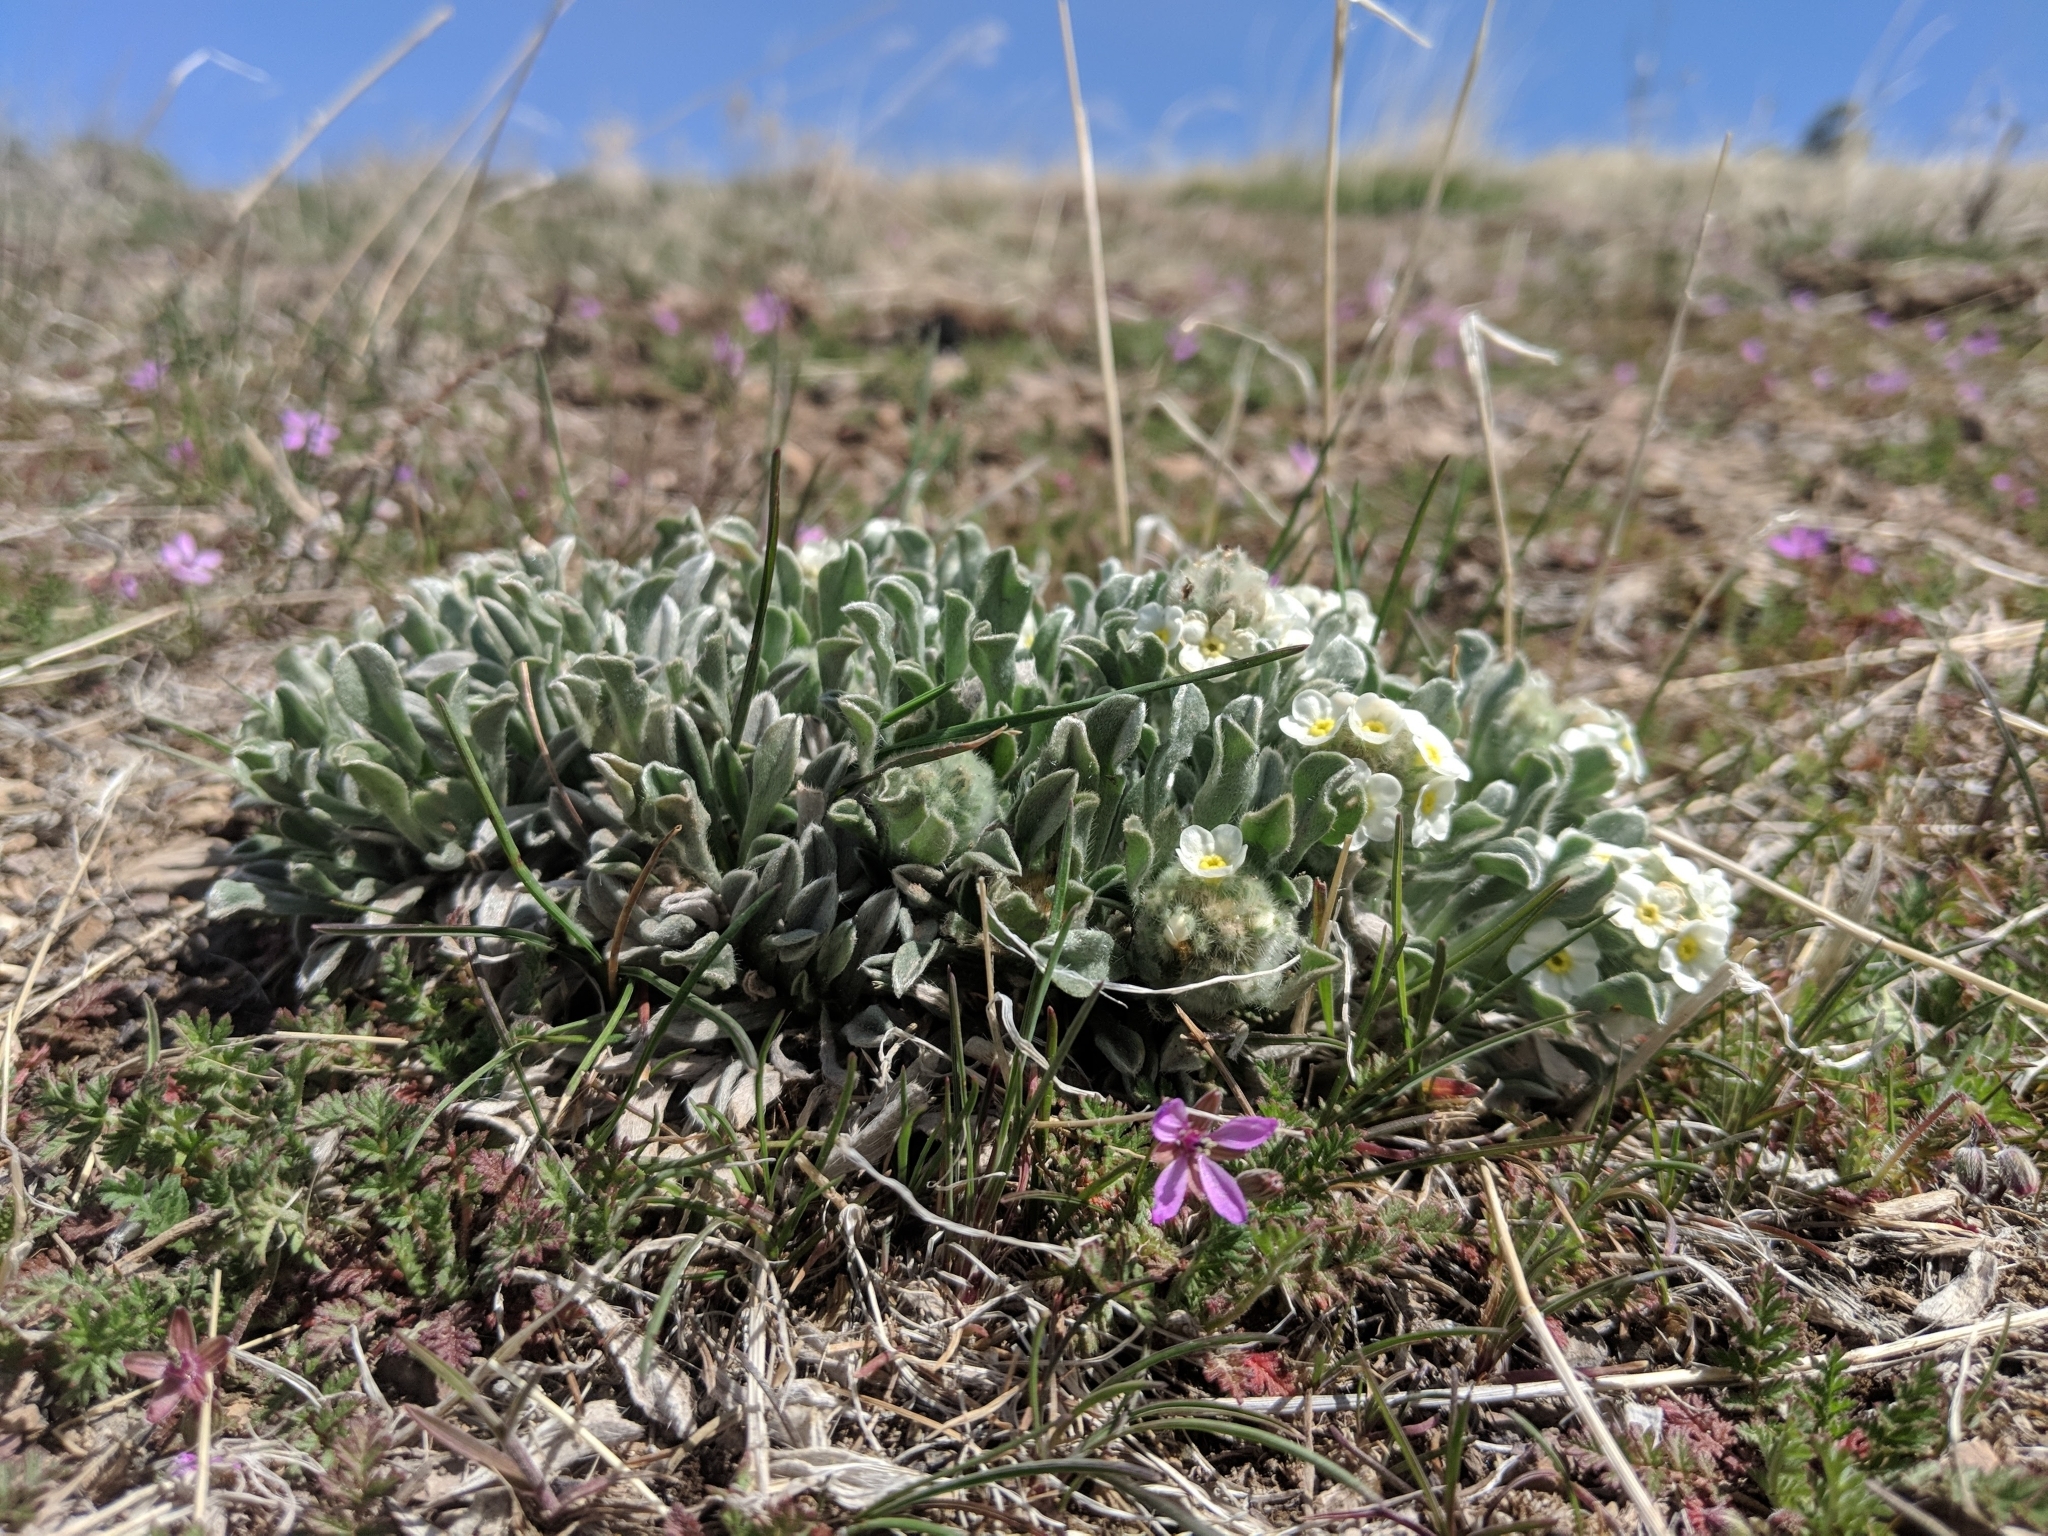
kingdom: Plantae
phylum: Tracheophyta
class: Magnoliopsida
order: Boraginales
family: Boraginaceae
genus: Oreocarya
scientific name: Oreocarya humilis
